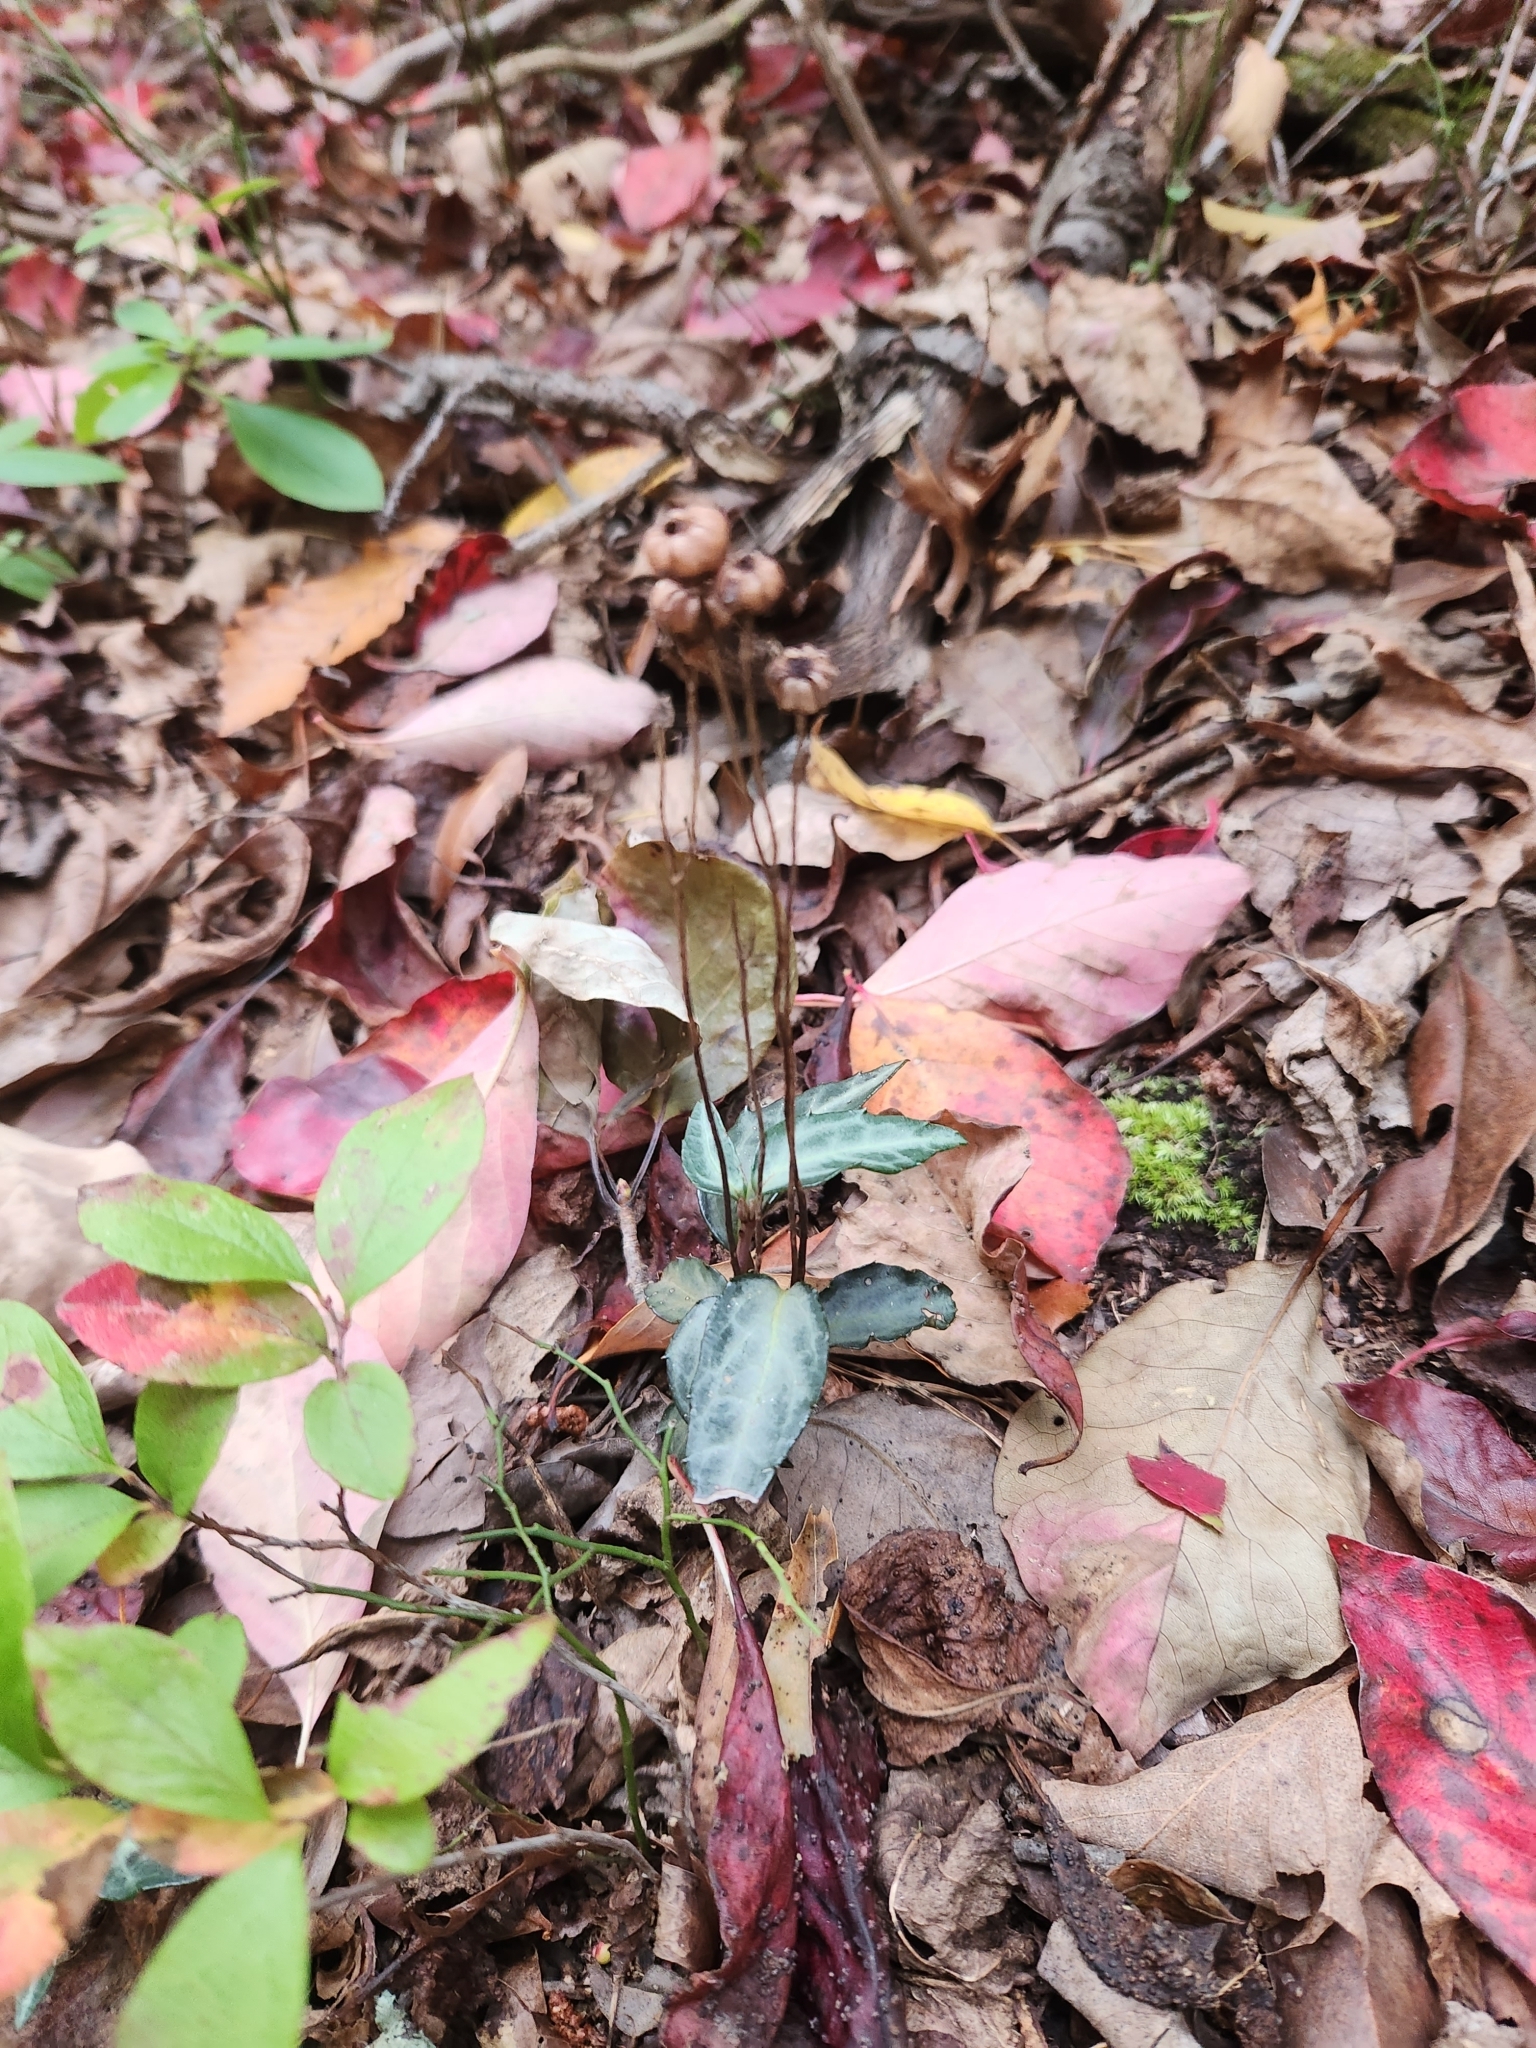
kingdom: Plantae
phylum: Tracheophyta
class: Magnoliopsida
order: Ericales
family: Ericaceae
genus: Chimaphila
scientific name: Chimaphila maculata
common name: Spotted pipsissewa
